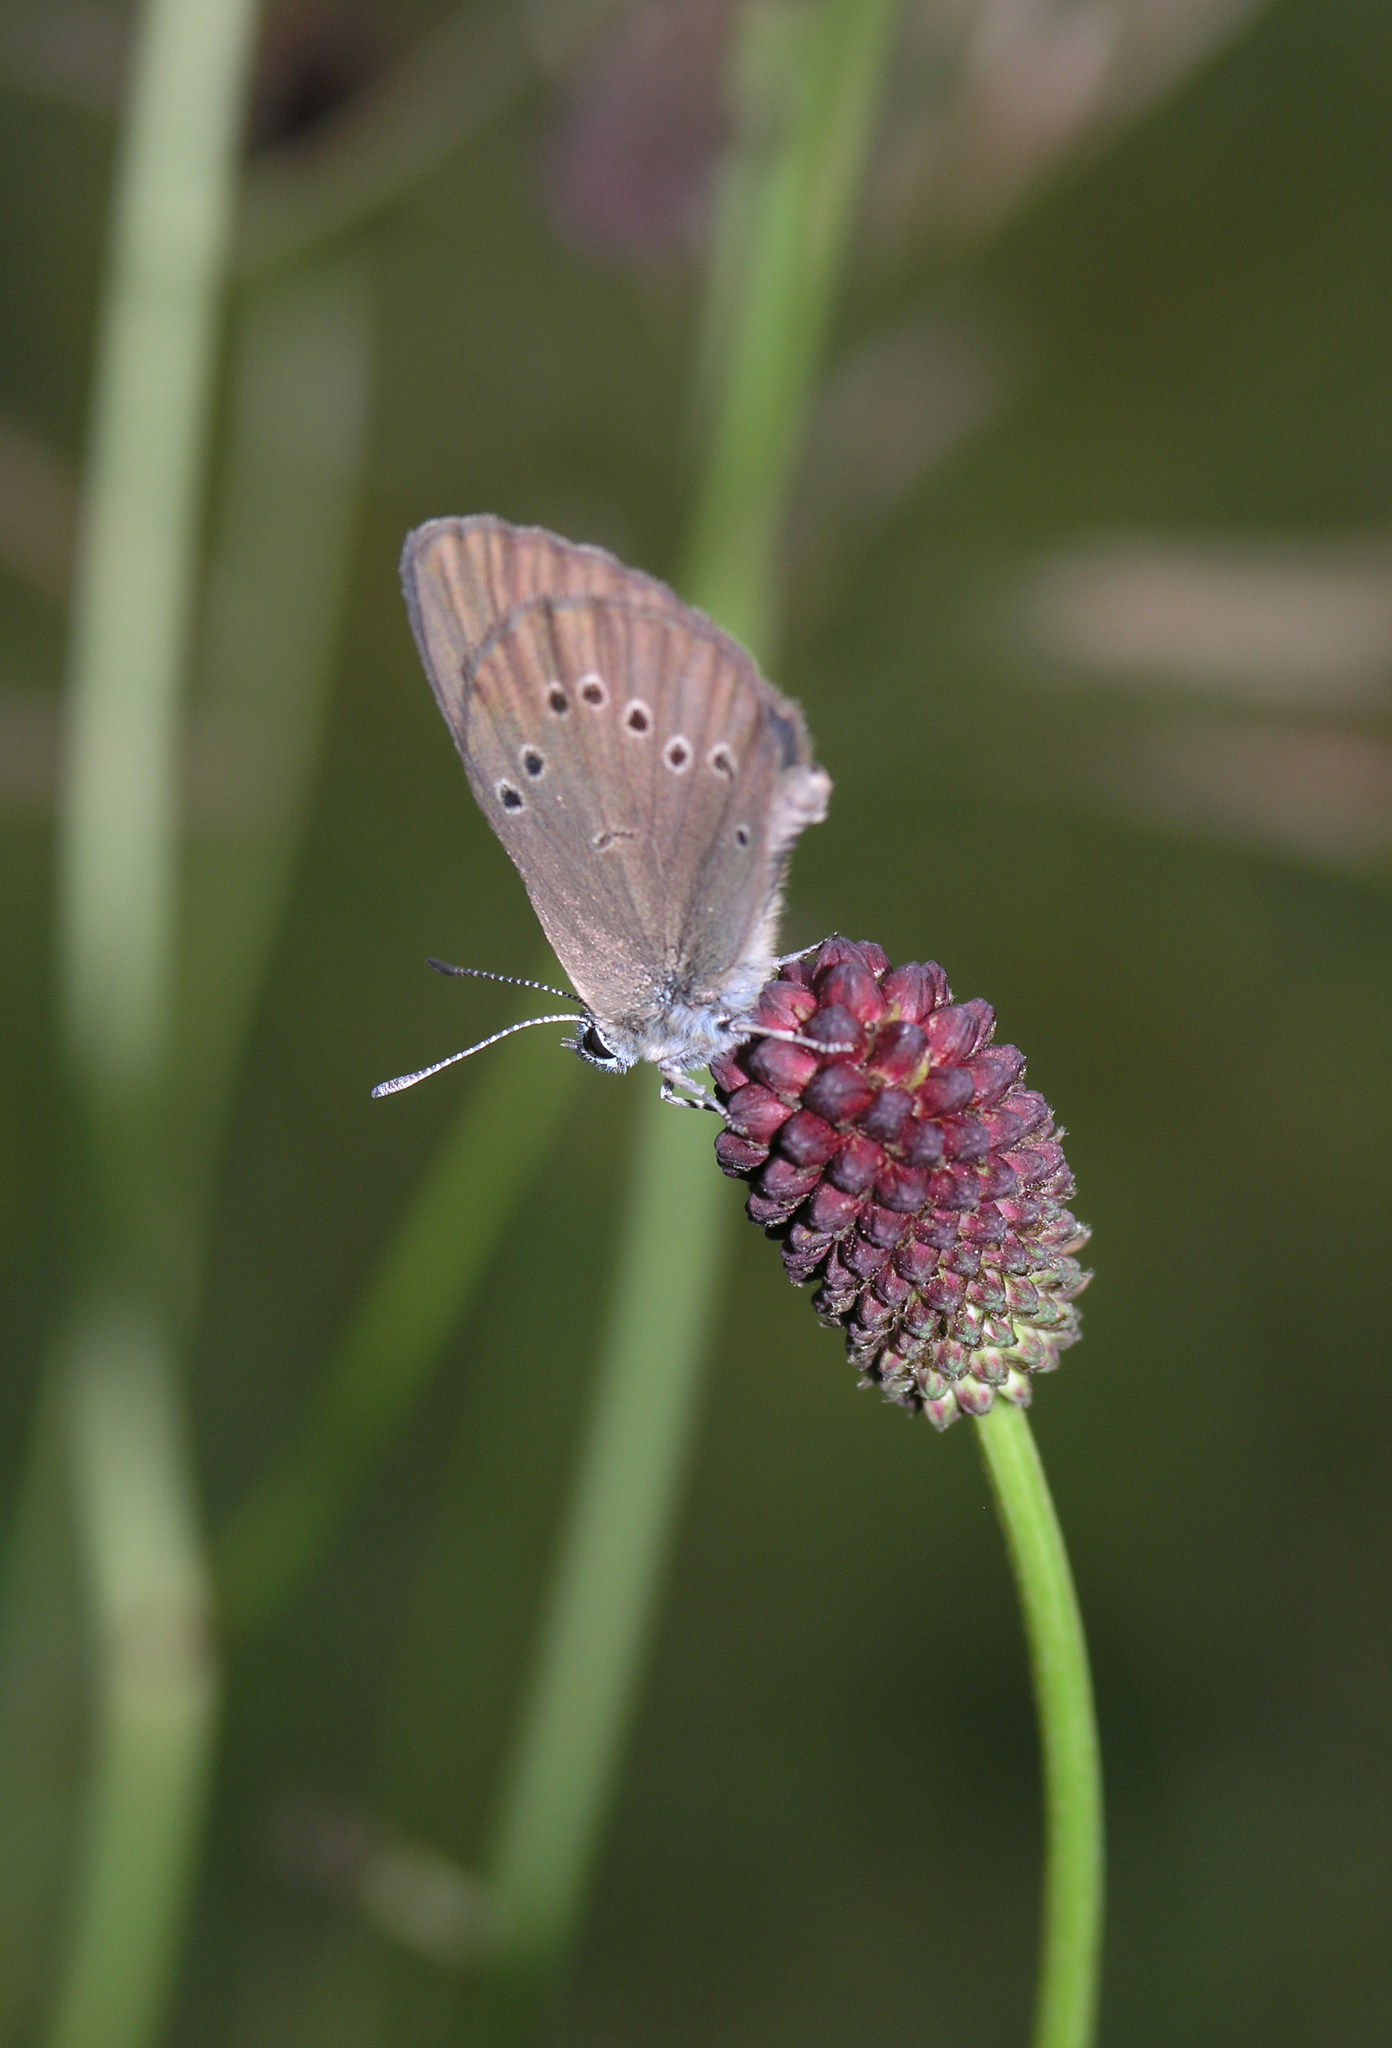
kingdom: Plantae
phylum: Tracheophyta
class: Magnoliopsida
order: Rosales
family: Rosaceae
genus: Sanguisorba
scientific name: Sanguisorba officinalis
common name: Great burnet
